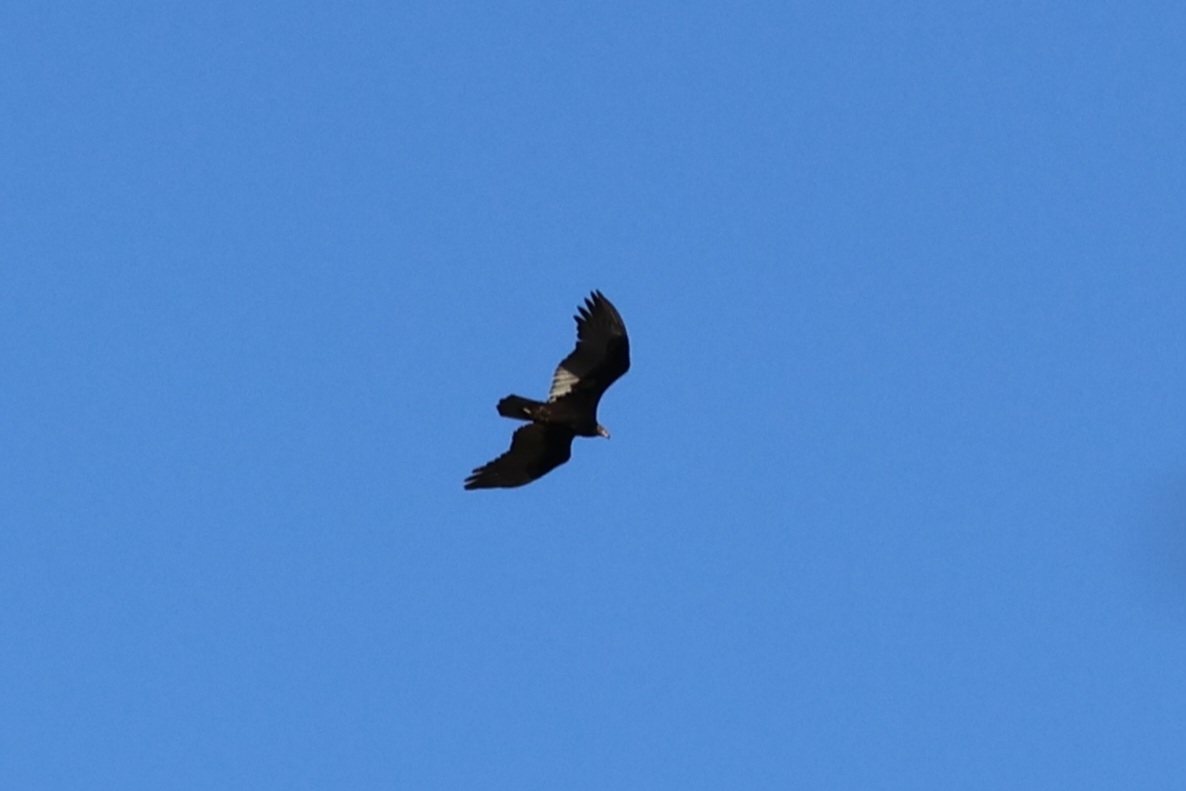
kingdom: Animalia
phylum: Chordata
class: Aves
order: Accipitriformes
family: Cathartidae
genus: Cathartes
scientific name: Cathartes aura
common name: Turkey vulture
